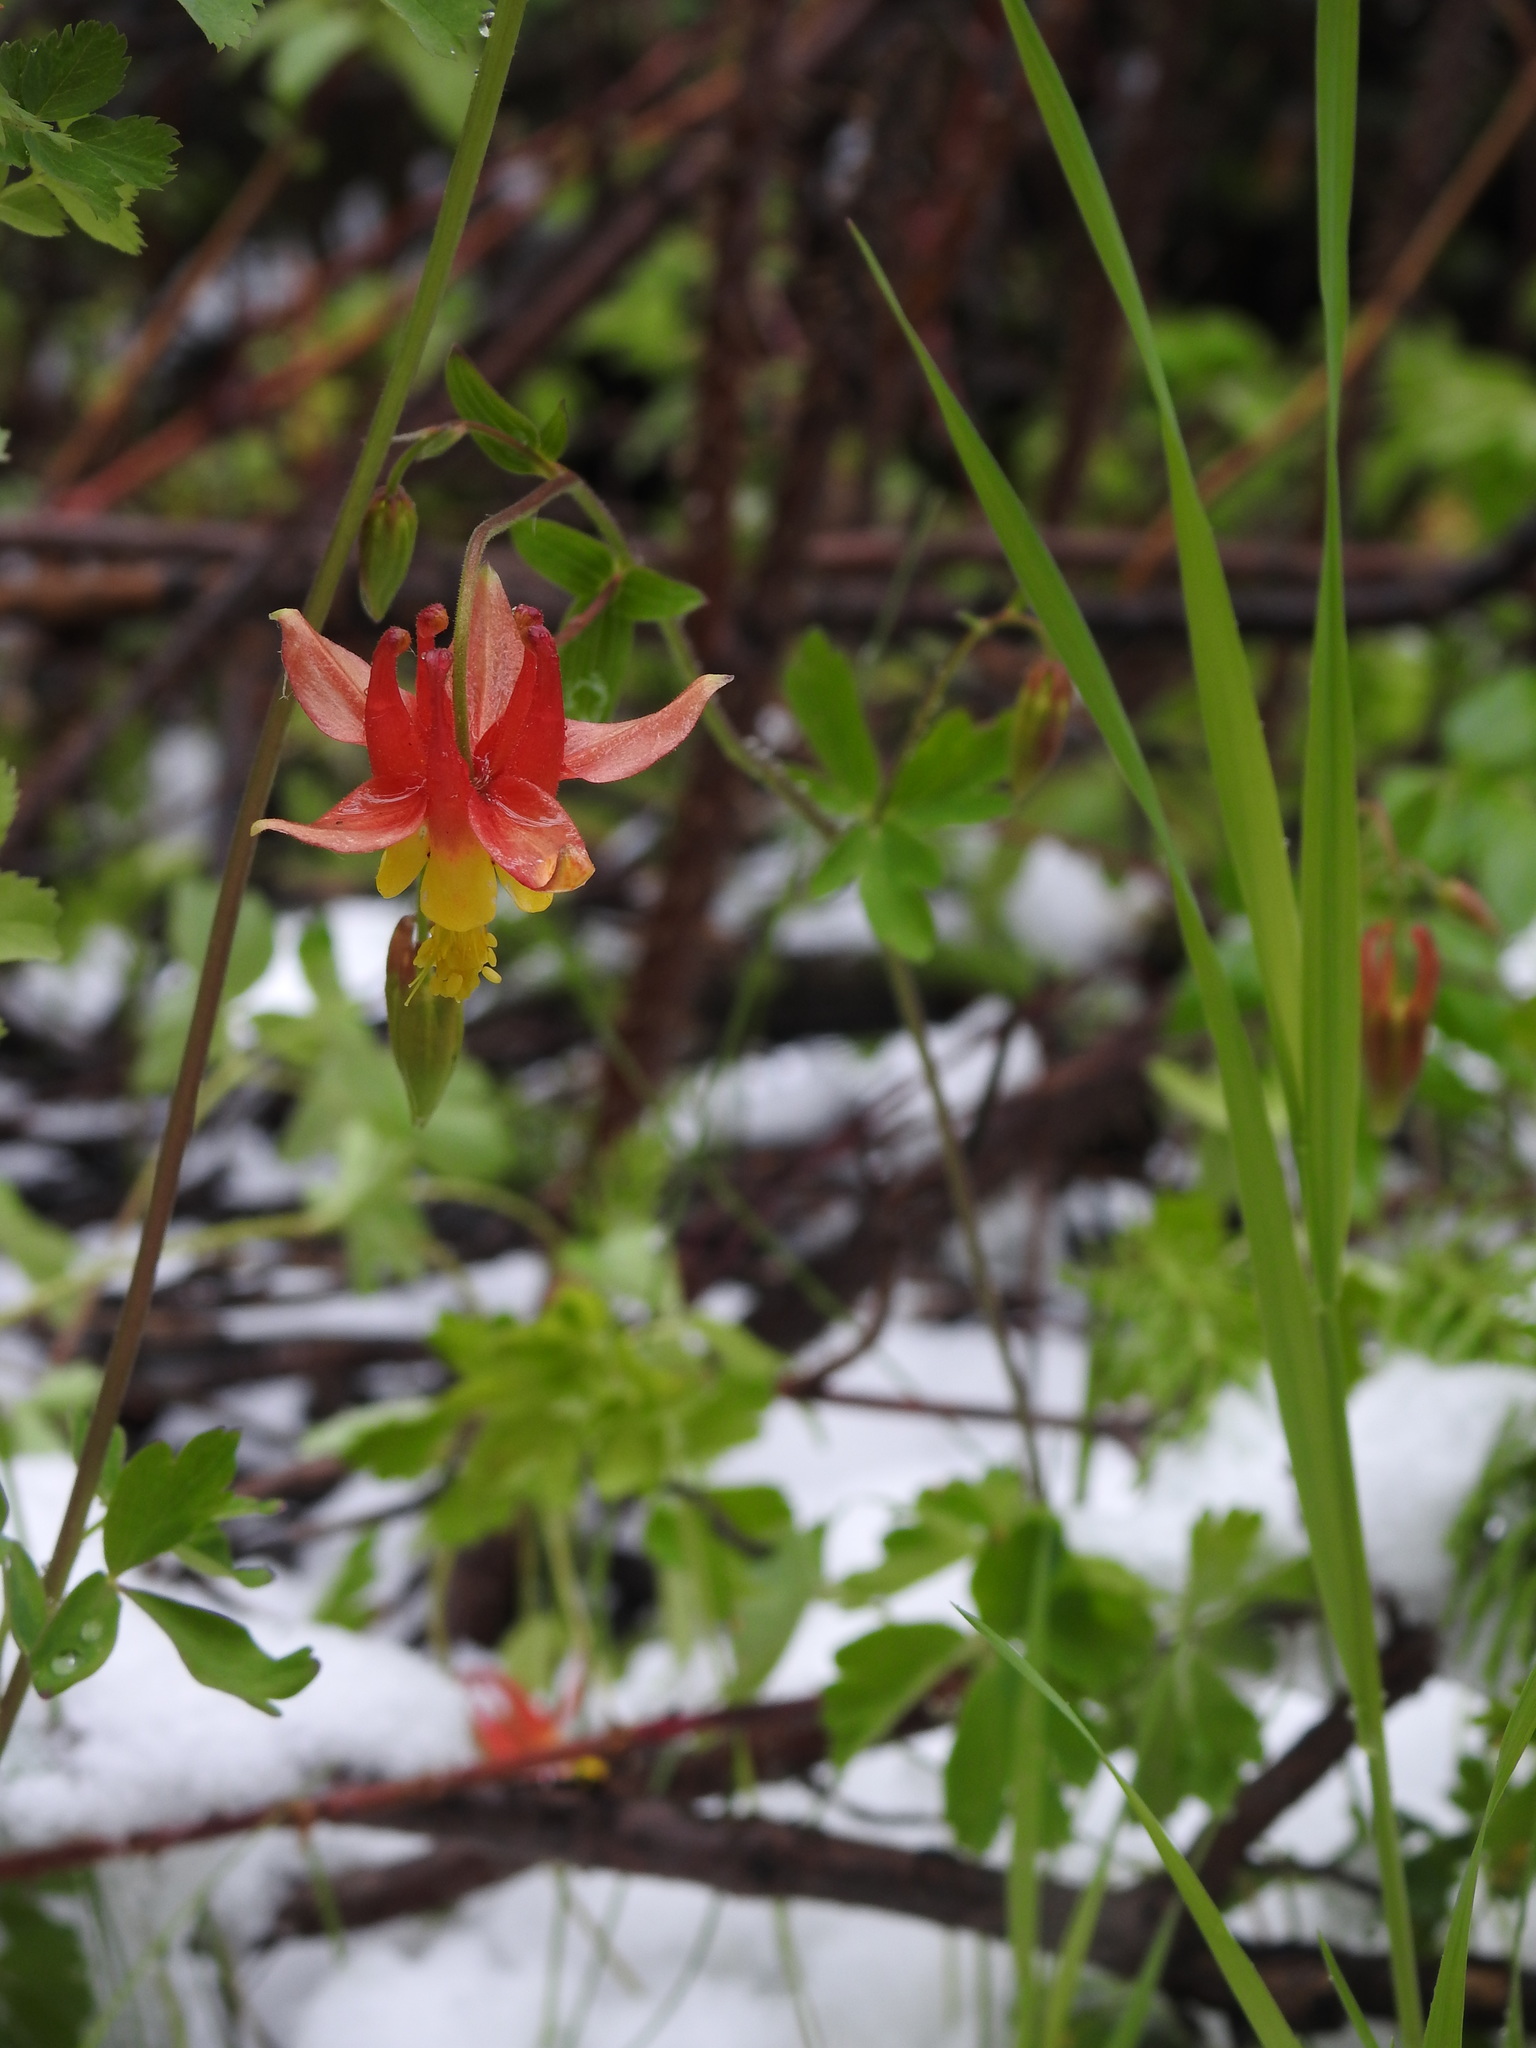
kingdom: Plantae
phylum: Tracheophyta
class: Magnoliopsida
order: Ranunculales
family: Ranunculaceae
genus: Aquilegia
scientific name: Aquilegia formosa
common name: Sitka columbine
